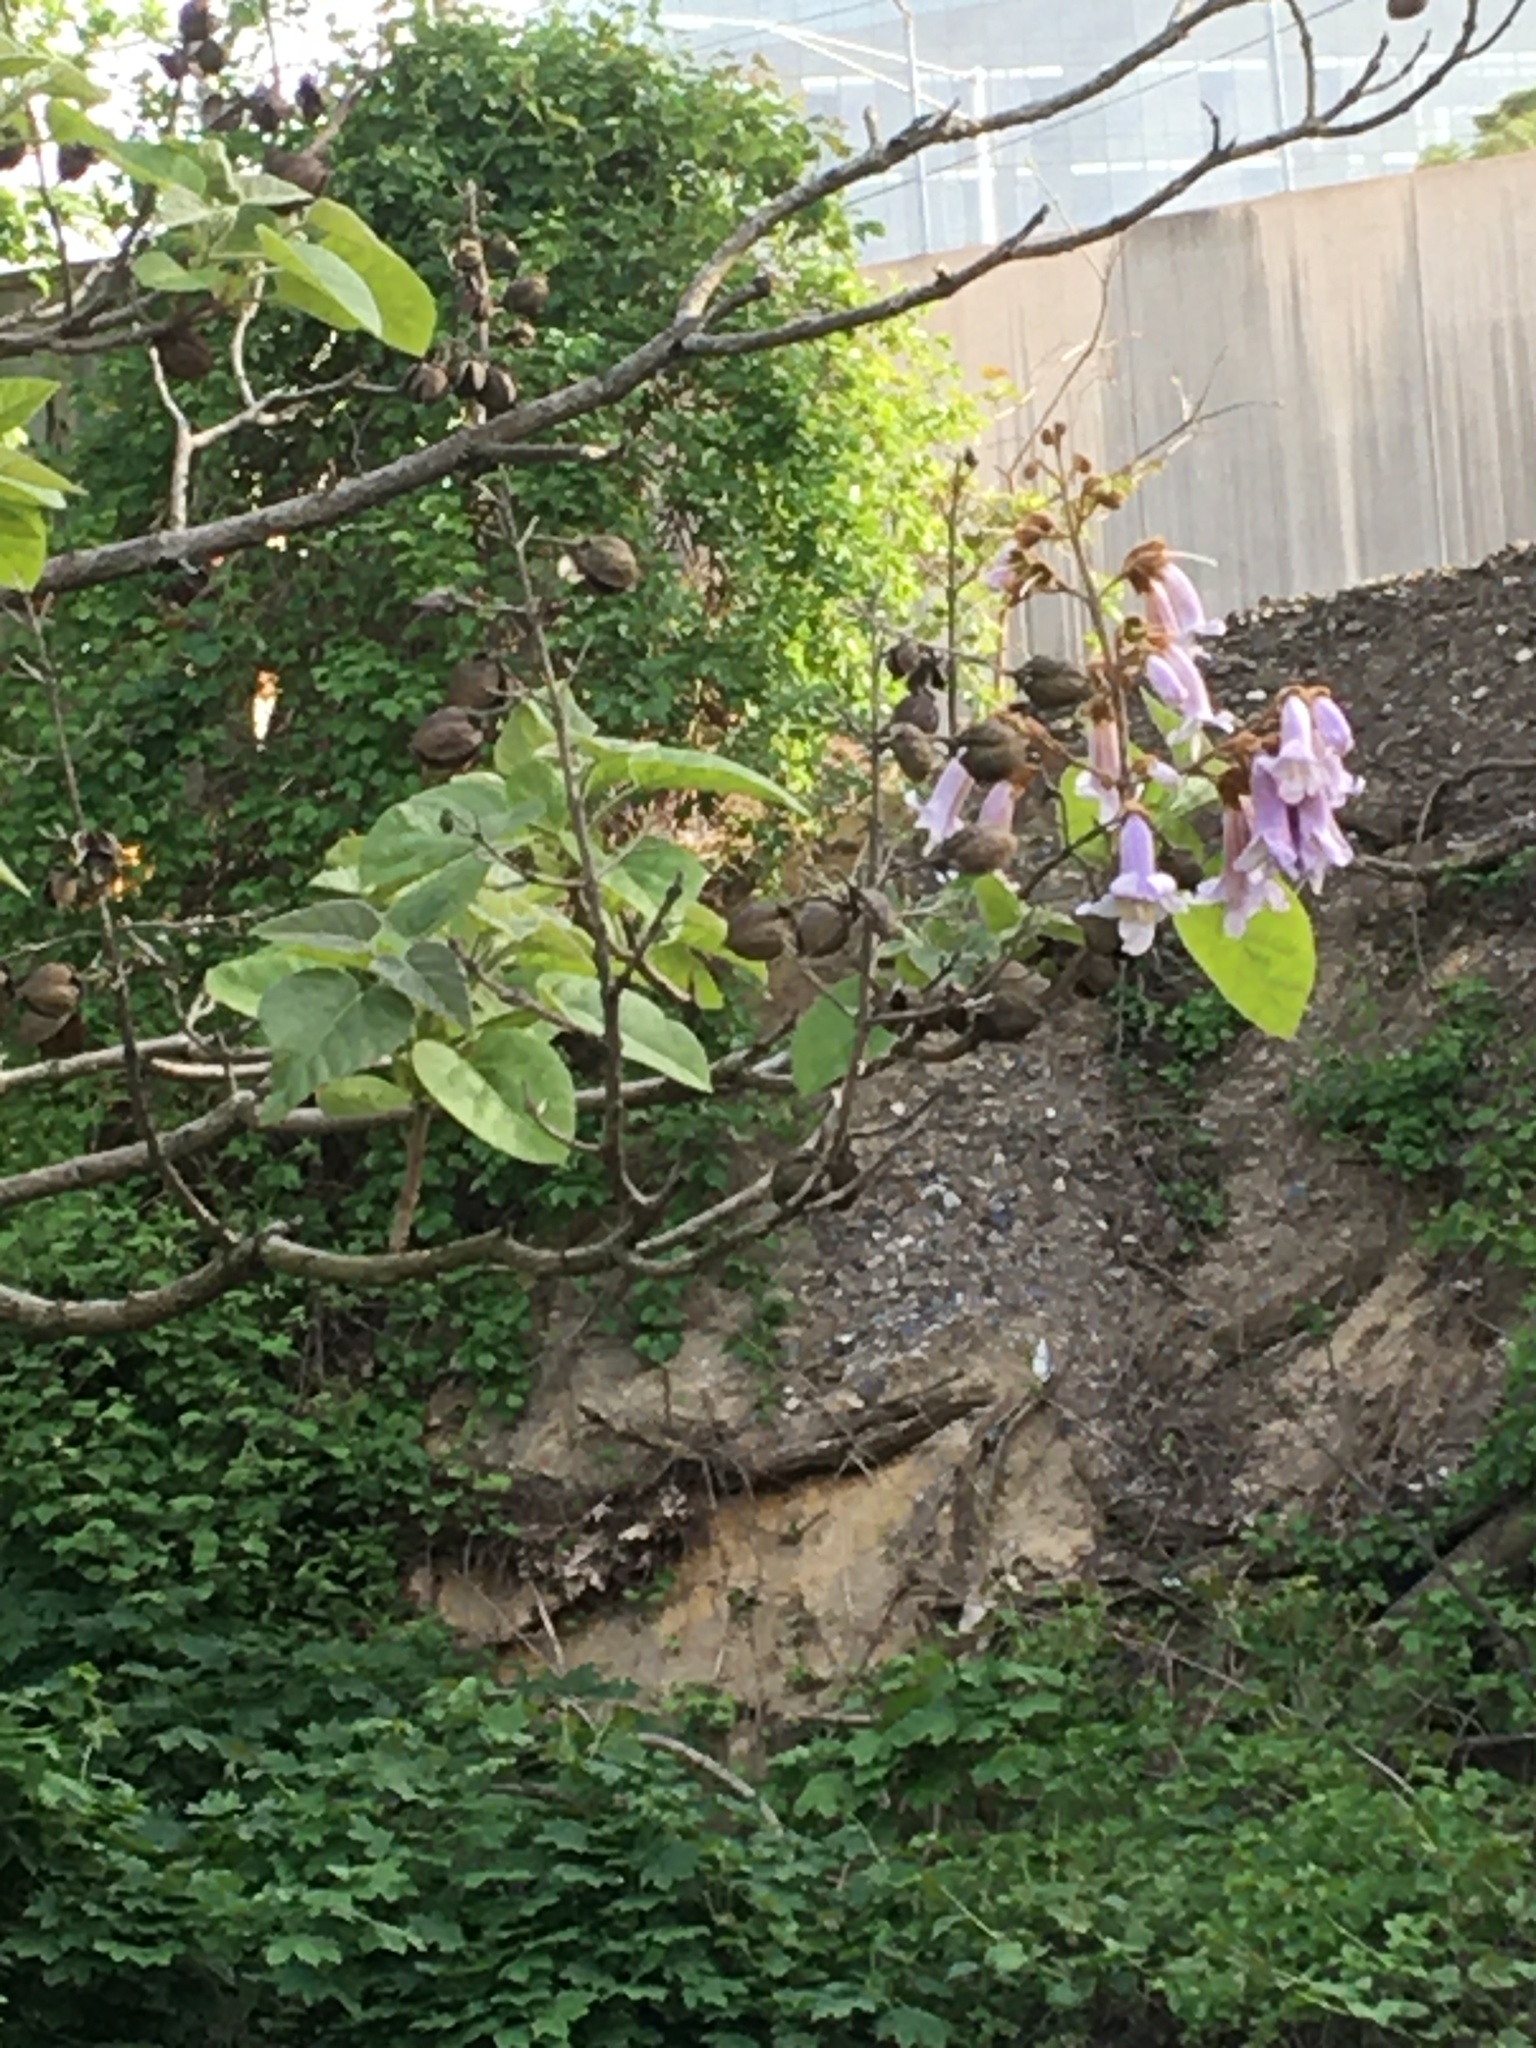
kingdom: Plantae
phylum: Tracheophyta
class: Magnoliopsida
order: Lamiales
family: Paulowniaceae
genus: Paulownia
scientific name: Paulownia tomentosa
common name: Foxglove-tree
